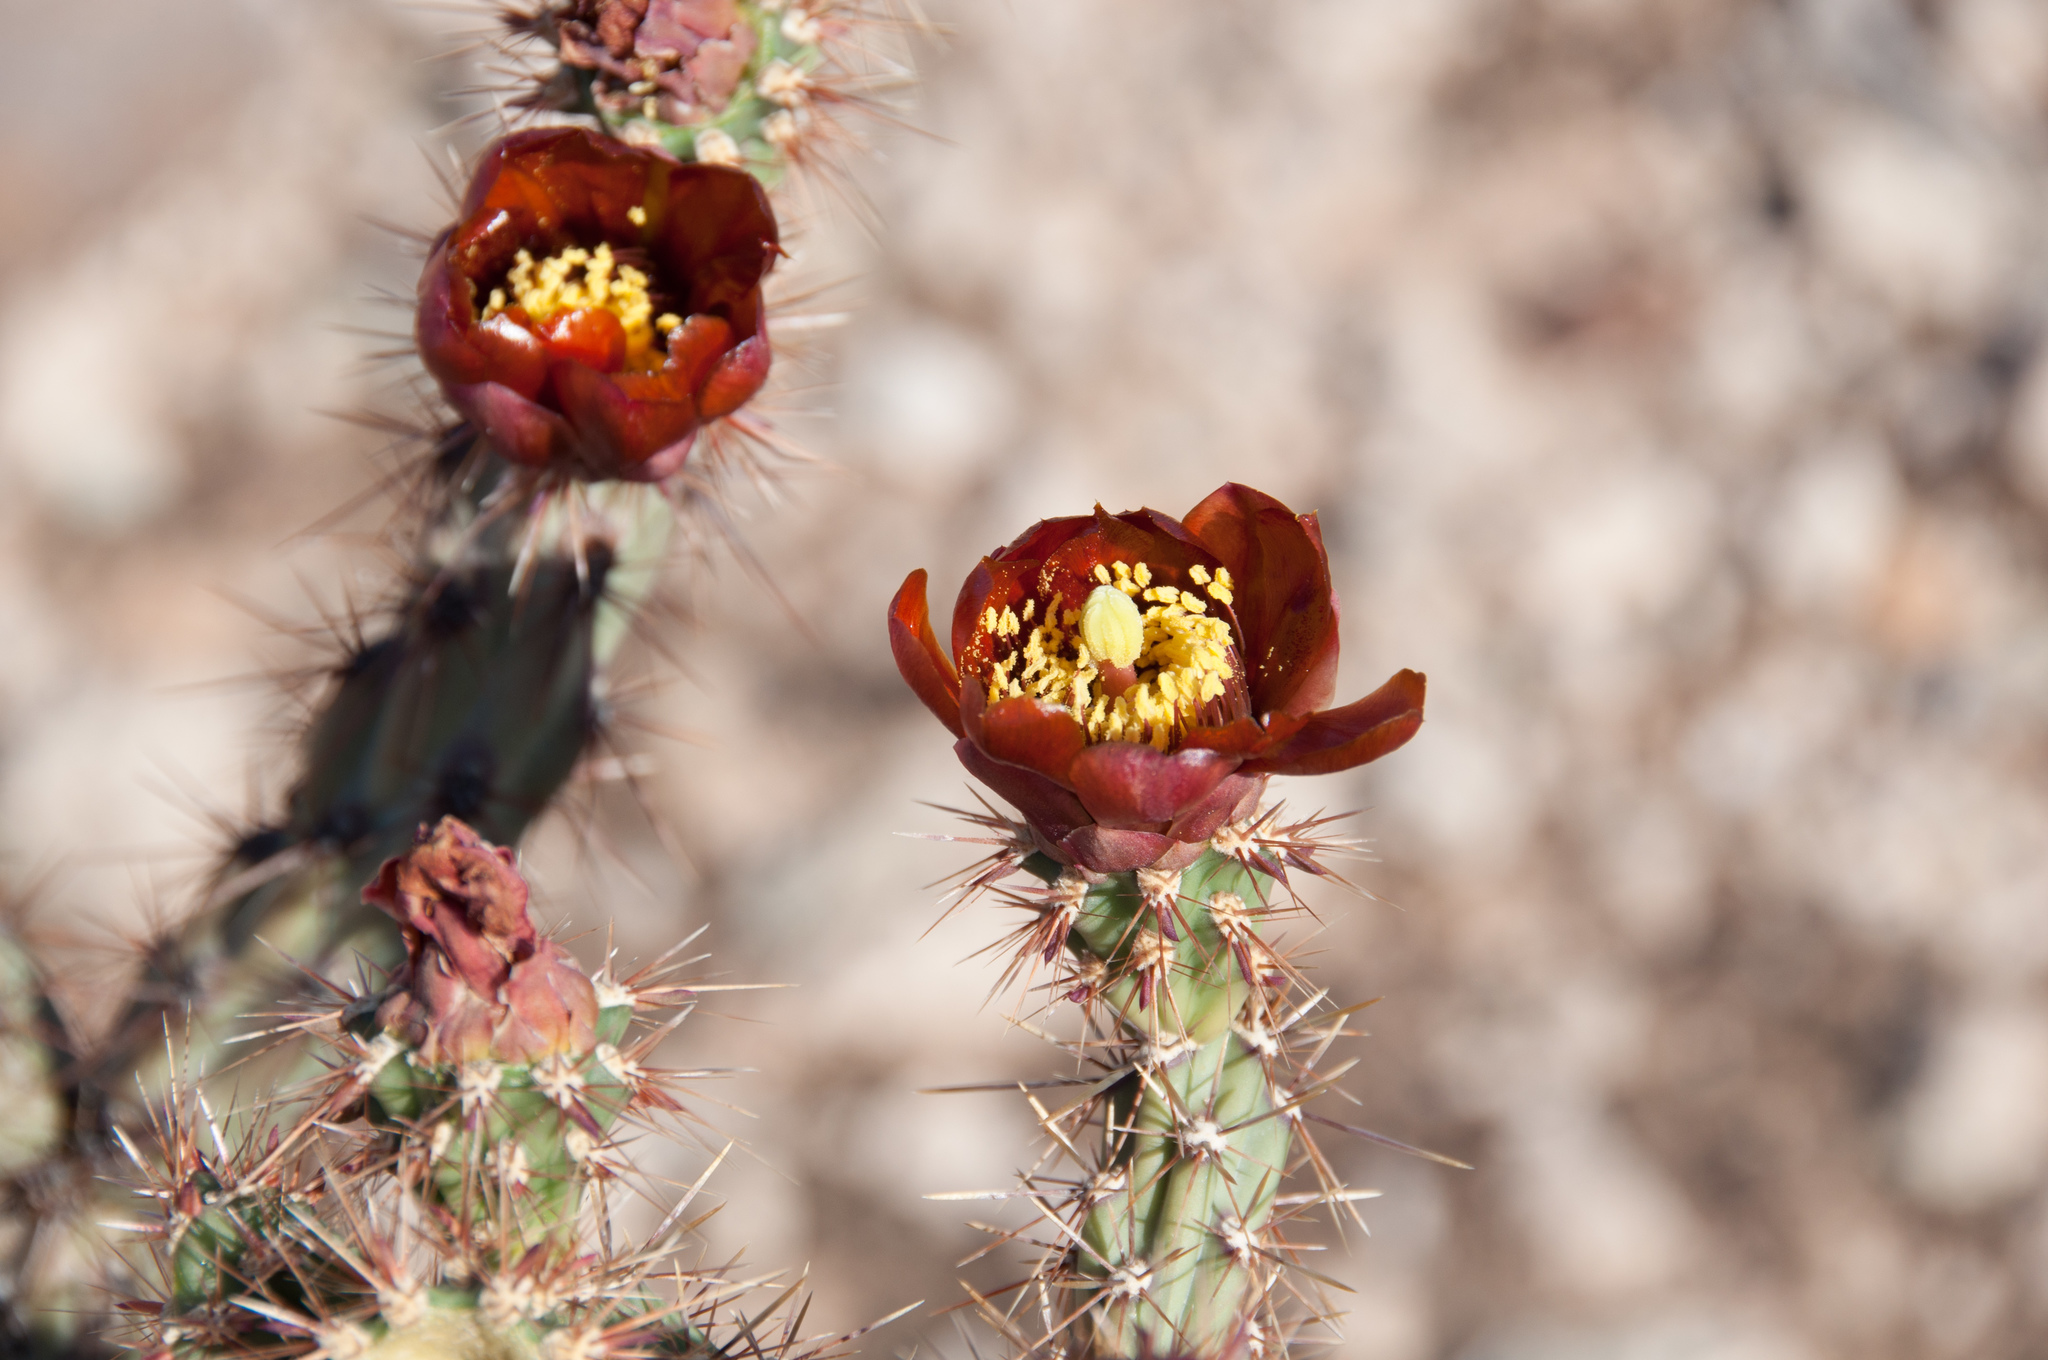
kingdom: Plantae
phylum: Tracheophyta
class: Magnoliopsida
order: Caryophyllales
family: Cactaceae
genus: Cylindropuntia
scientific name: Cylindropuntia thurberi
